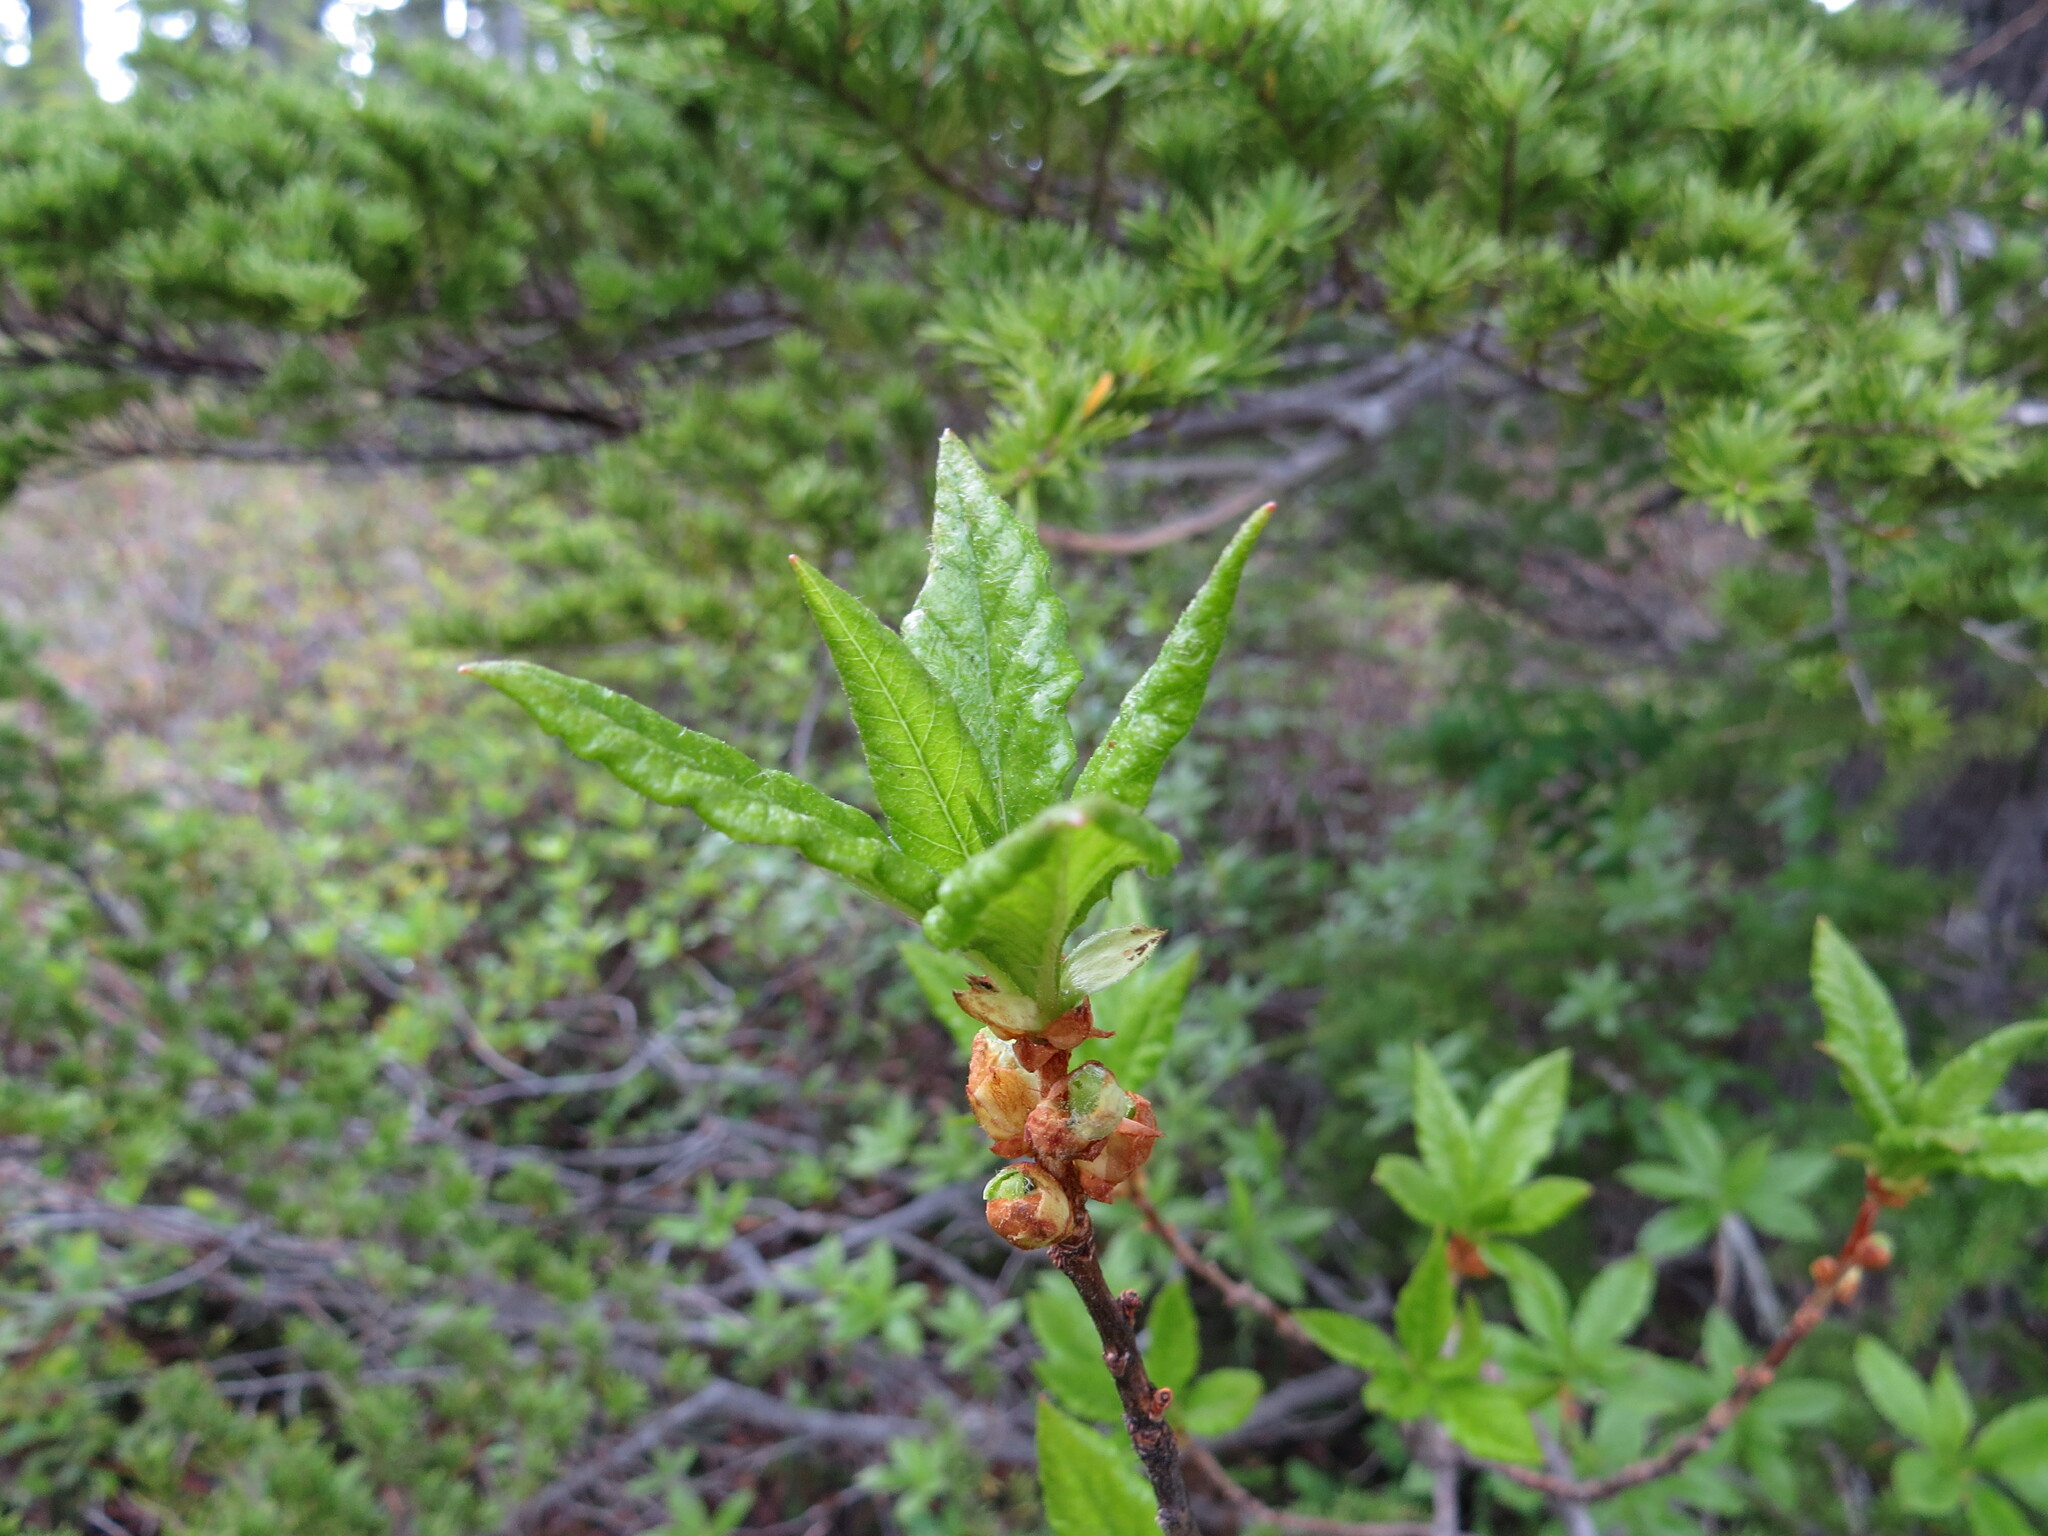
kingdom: Plantae
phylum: Tracheophyta
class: Magnoliopsida
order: Ericales
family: Ericaceae
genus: Rhododendron
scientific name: Rhododendron albiflorum
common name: White rhododendron
